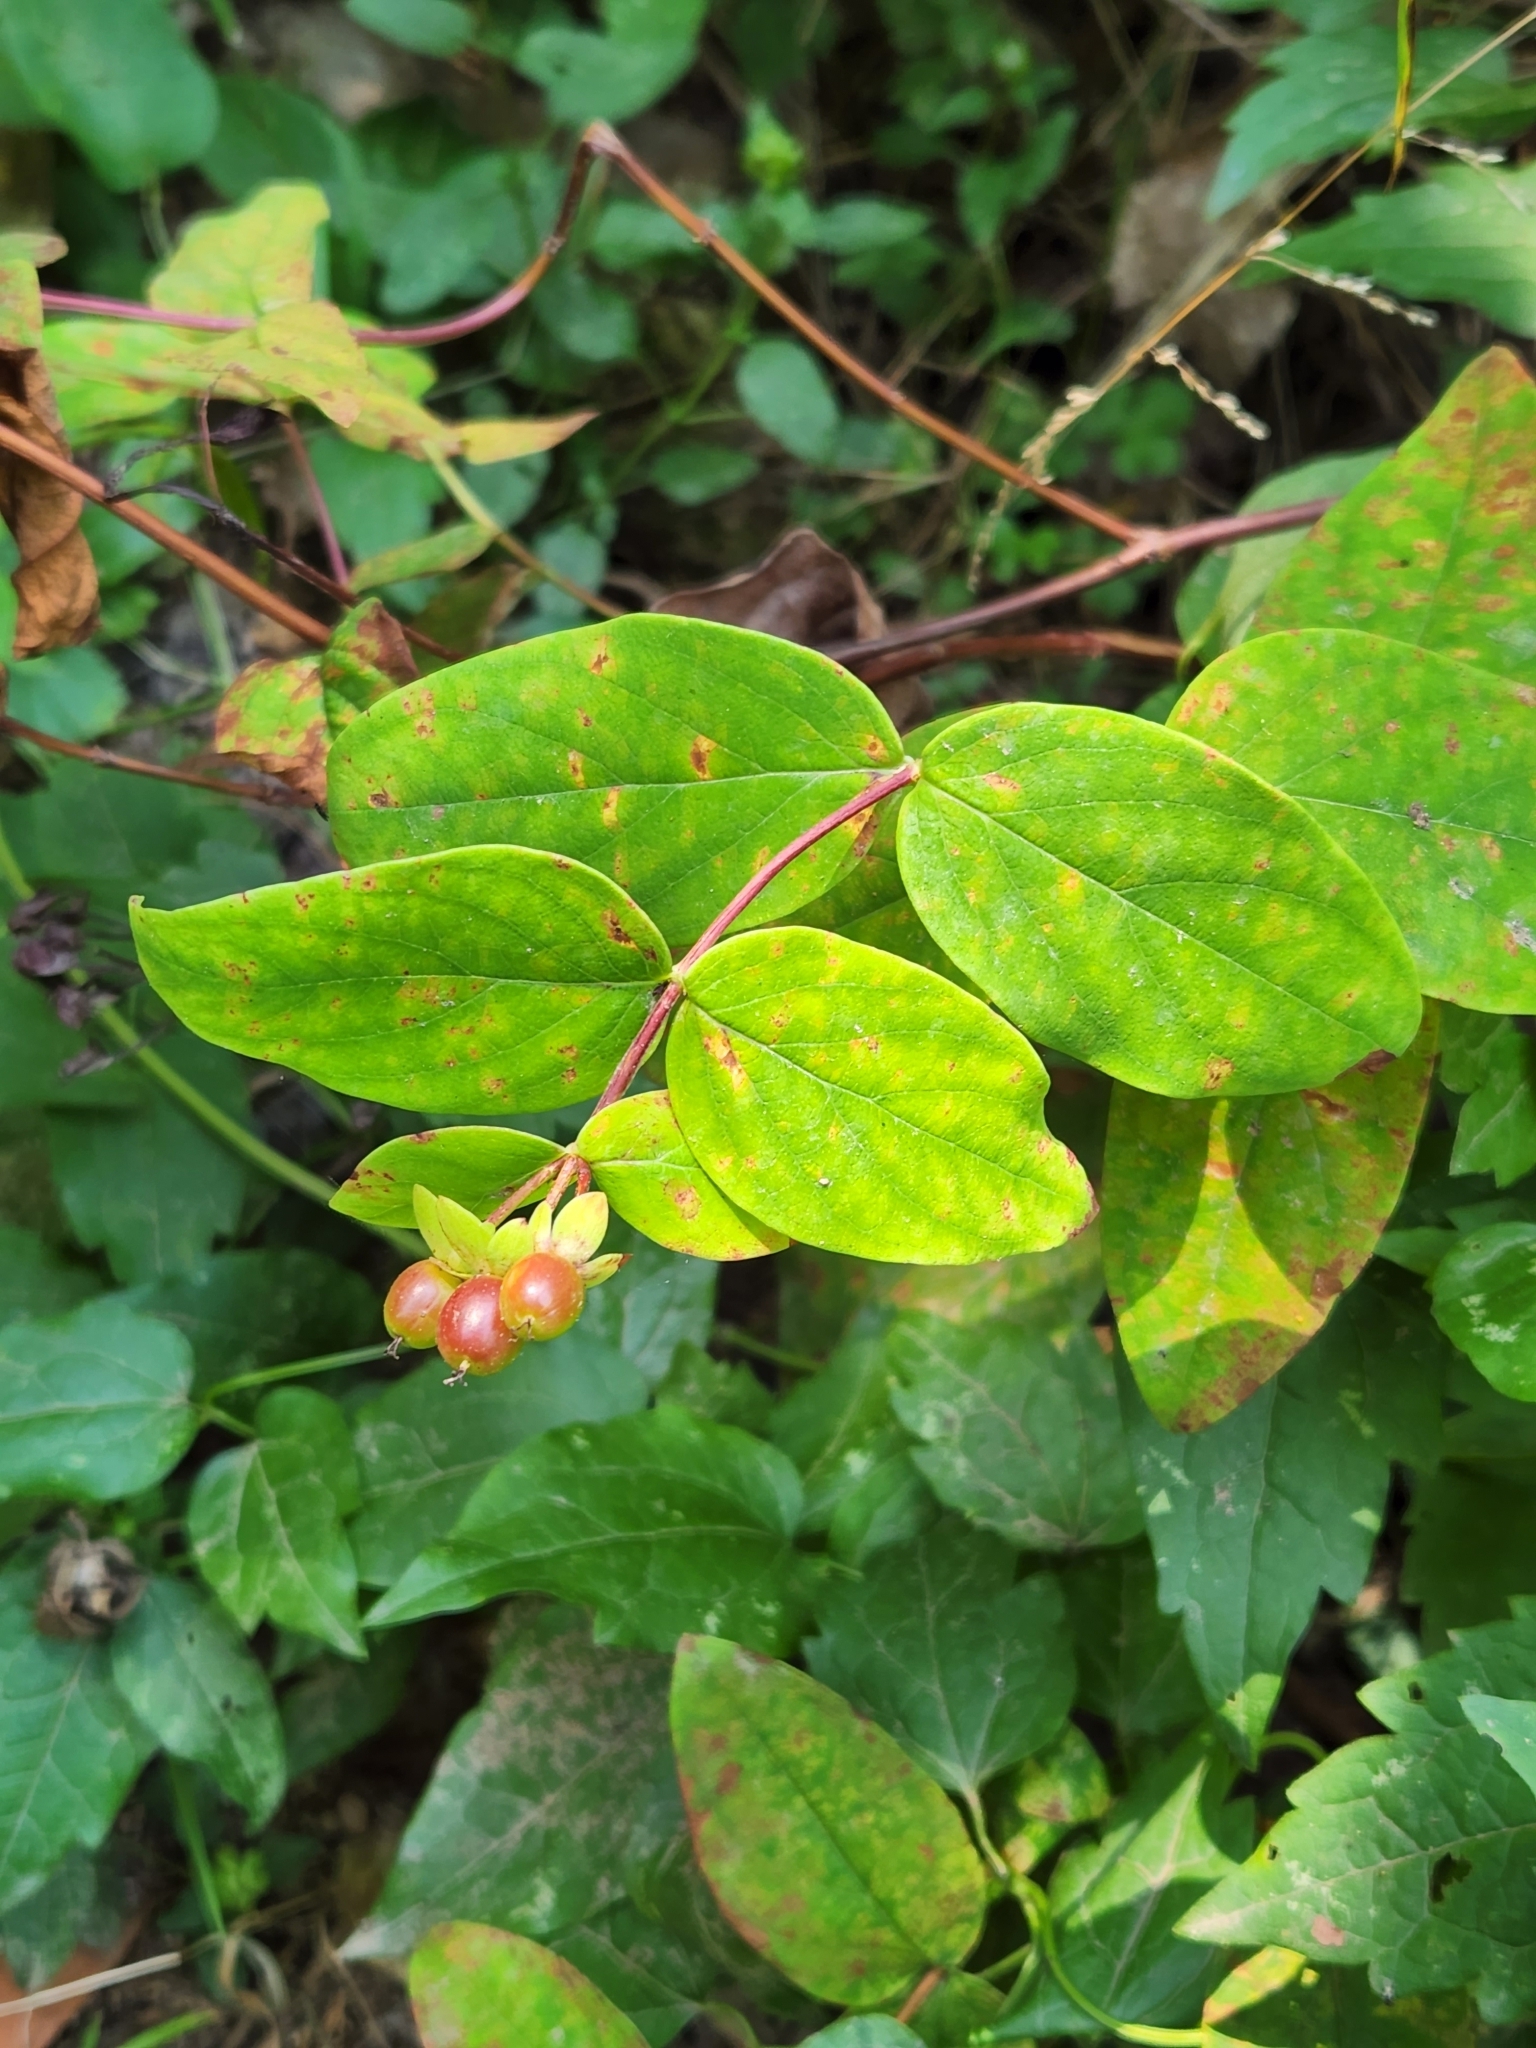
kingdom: Plantae
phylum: Tracheophyta
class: Magnoliopsida
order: Malpighiales
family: Hypericaceae
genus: Hypericum
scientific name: Hypericum androsaemum
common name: Sweet-amber
